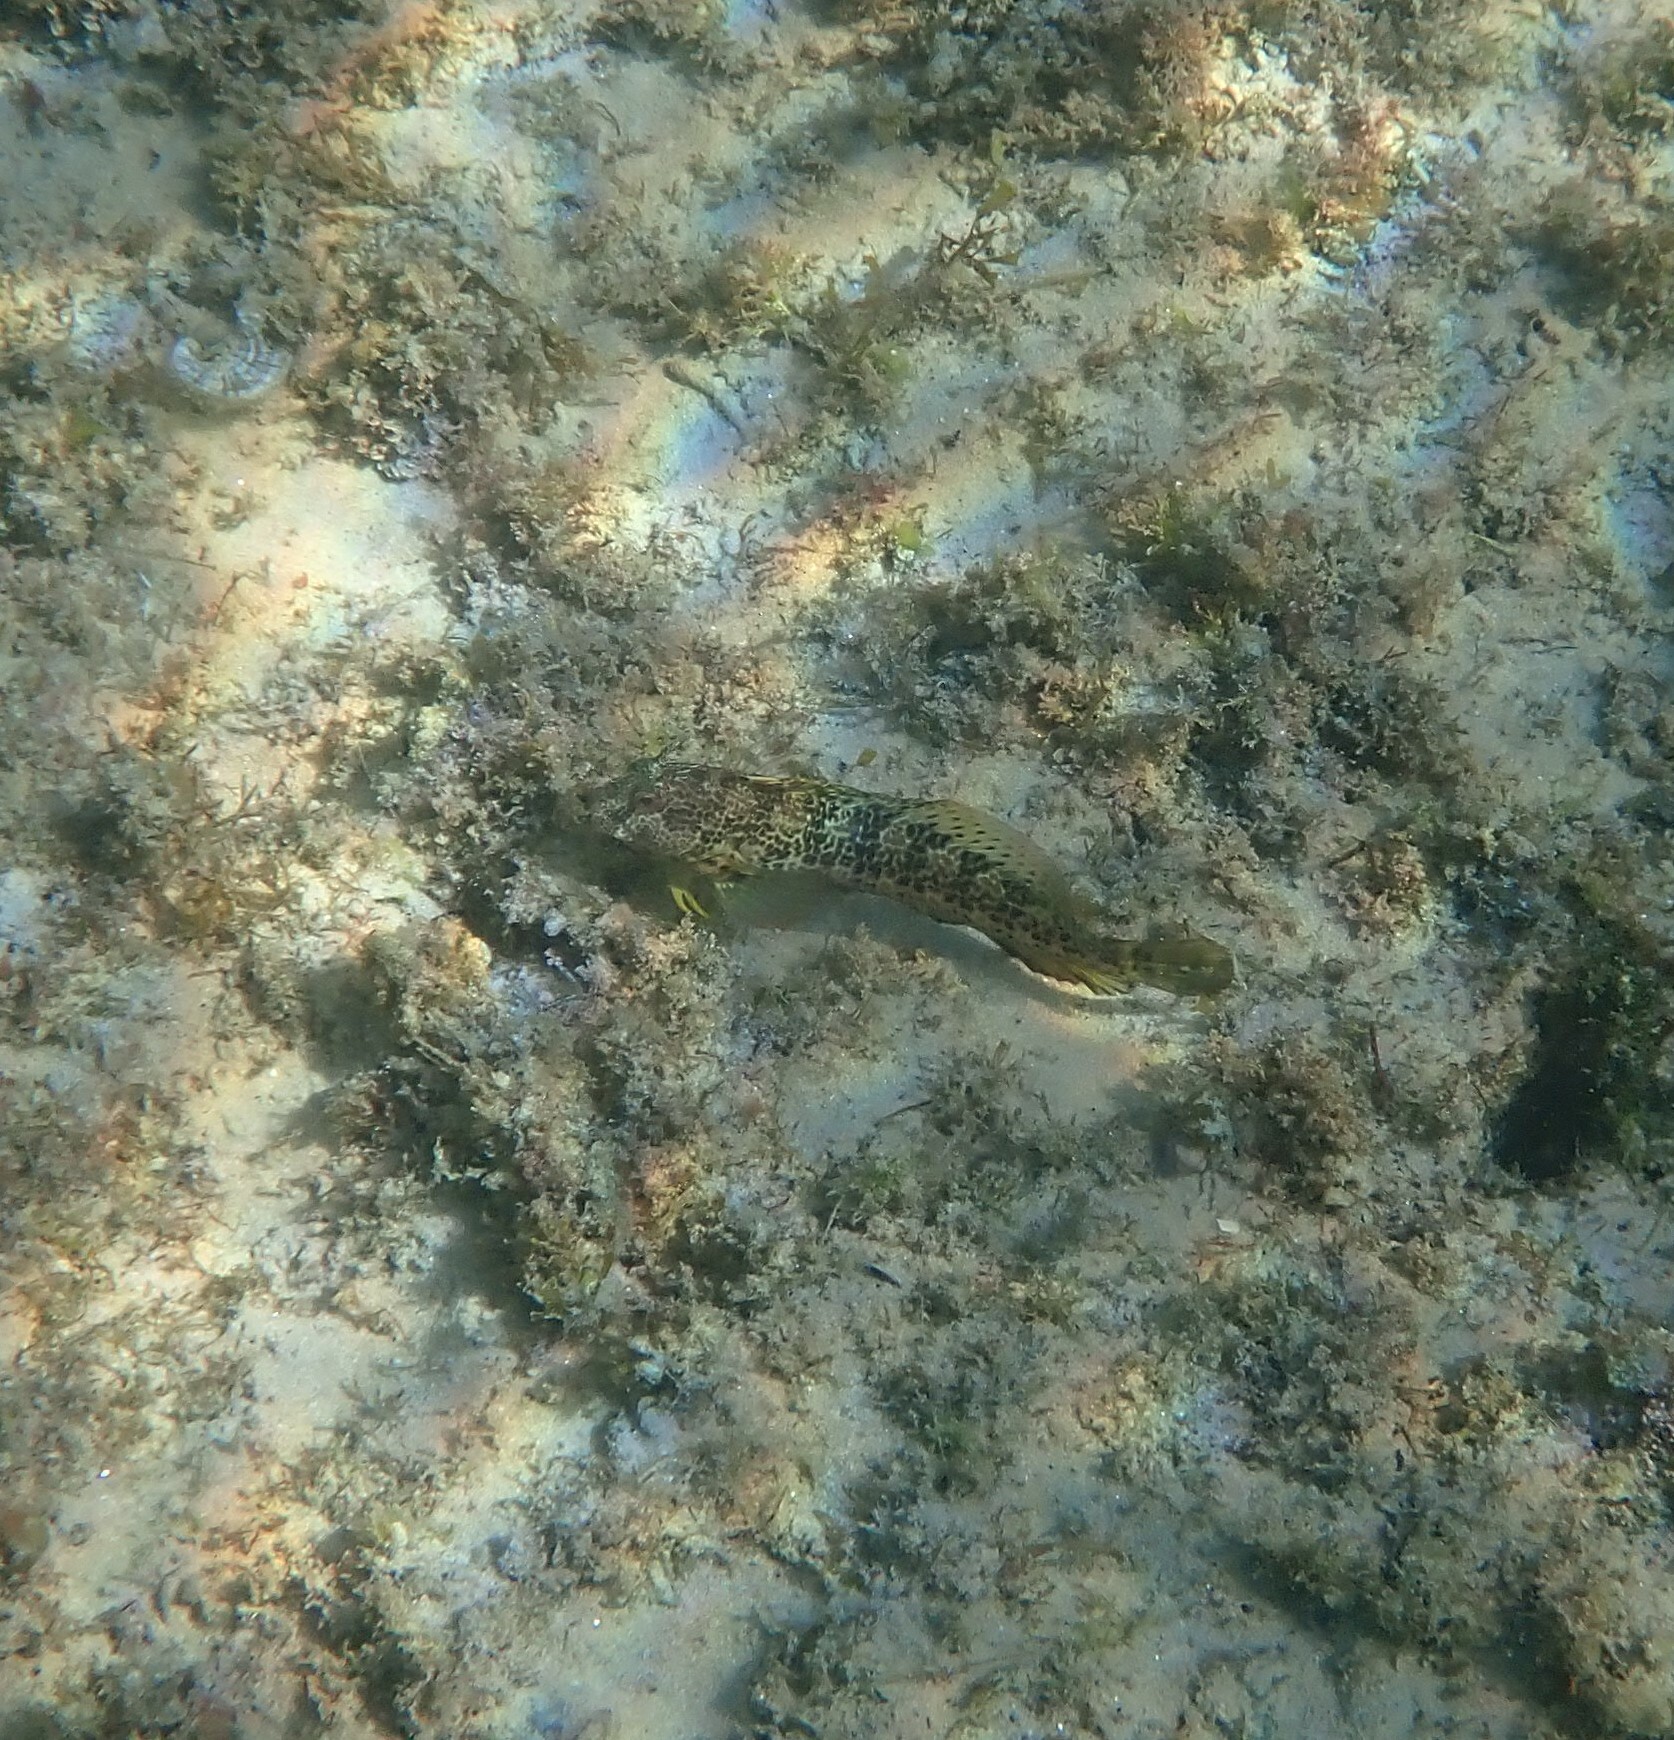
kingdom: Animalia
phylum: Chordata
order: Perciformes
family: Blenniidae
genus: Parablennius
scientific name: Parablennius pilicornis
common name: Ringneck blenny
